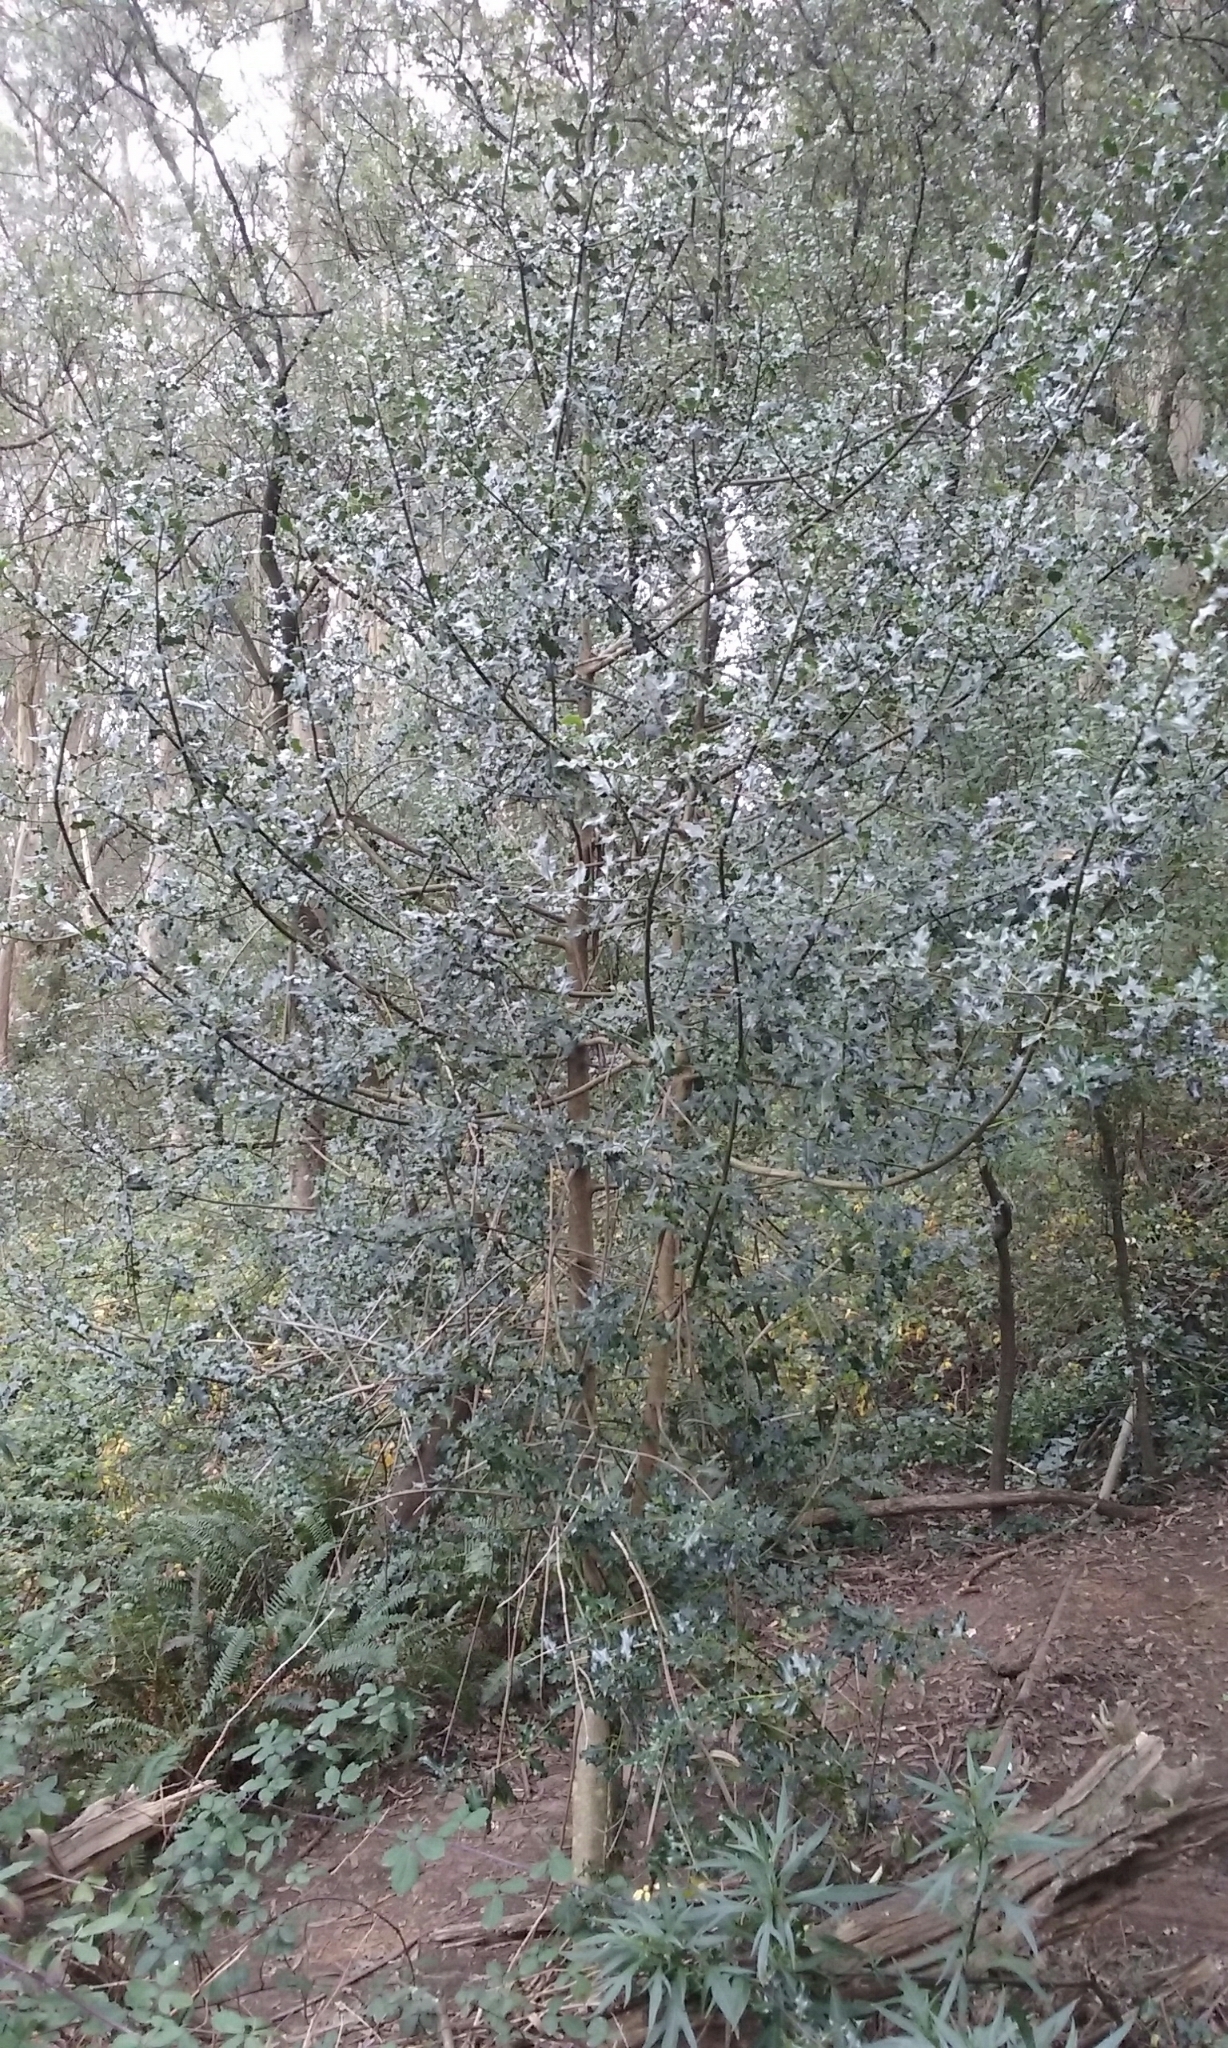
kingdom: Plantae
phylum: Tracheophyta
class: Magnoliopsida
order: Aquifoliales
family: Aquifoliaceae
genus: Ilex
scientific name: Ilex aquifolium
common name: English holly
